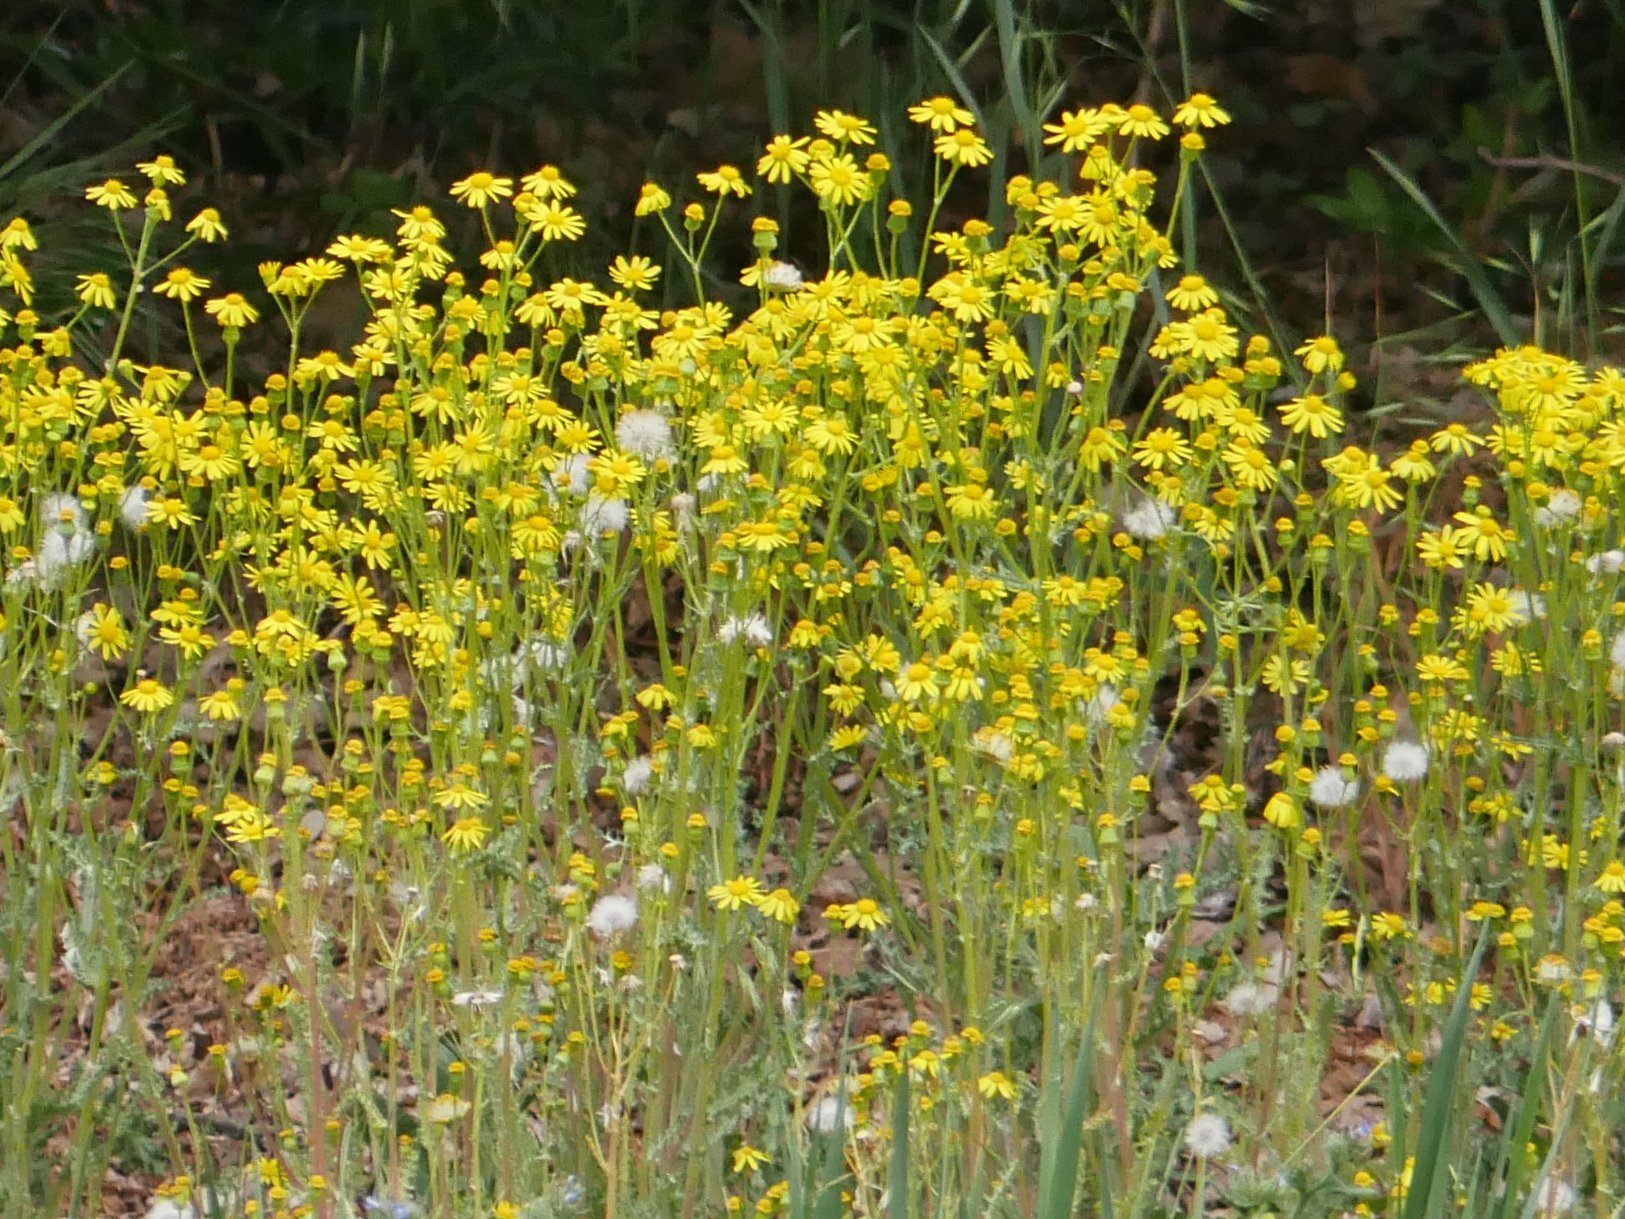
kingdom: Plantae
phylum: Tracheophyta
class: Magnoliopsida
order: Asterales
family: Asteraceae
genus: Senecio
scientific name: Senecio vernalis
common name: Eastern groundsel
